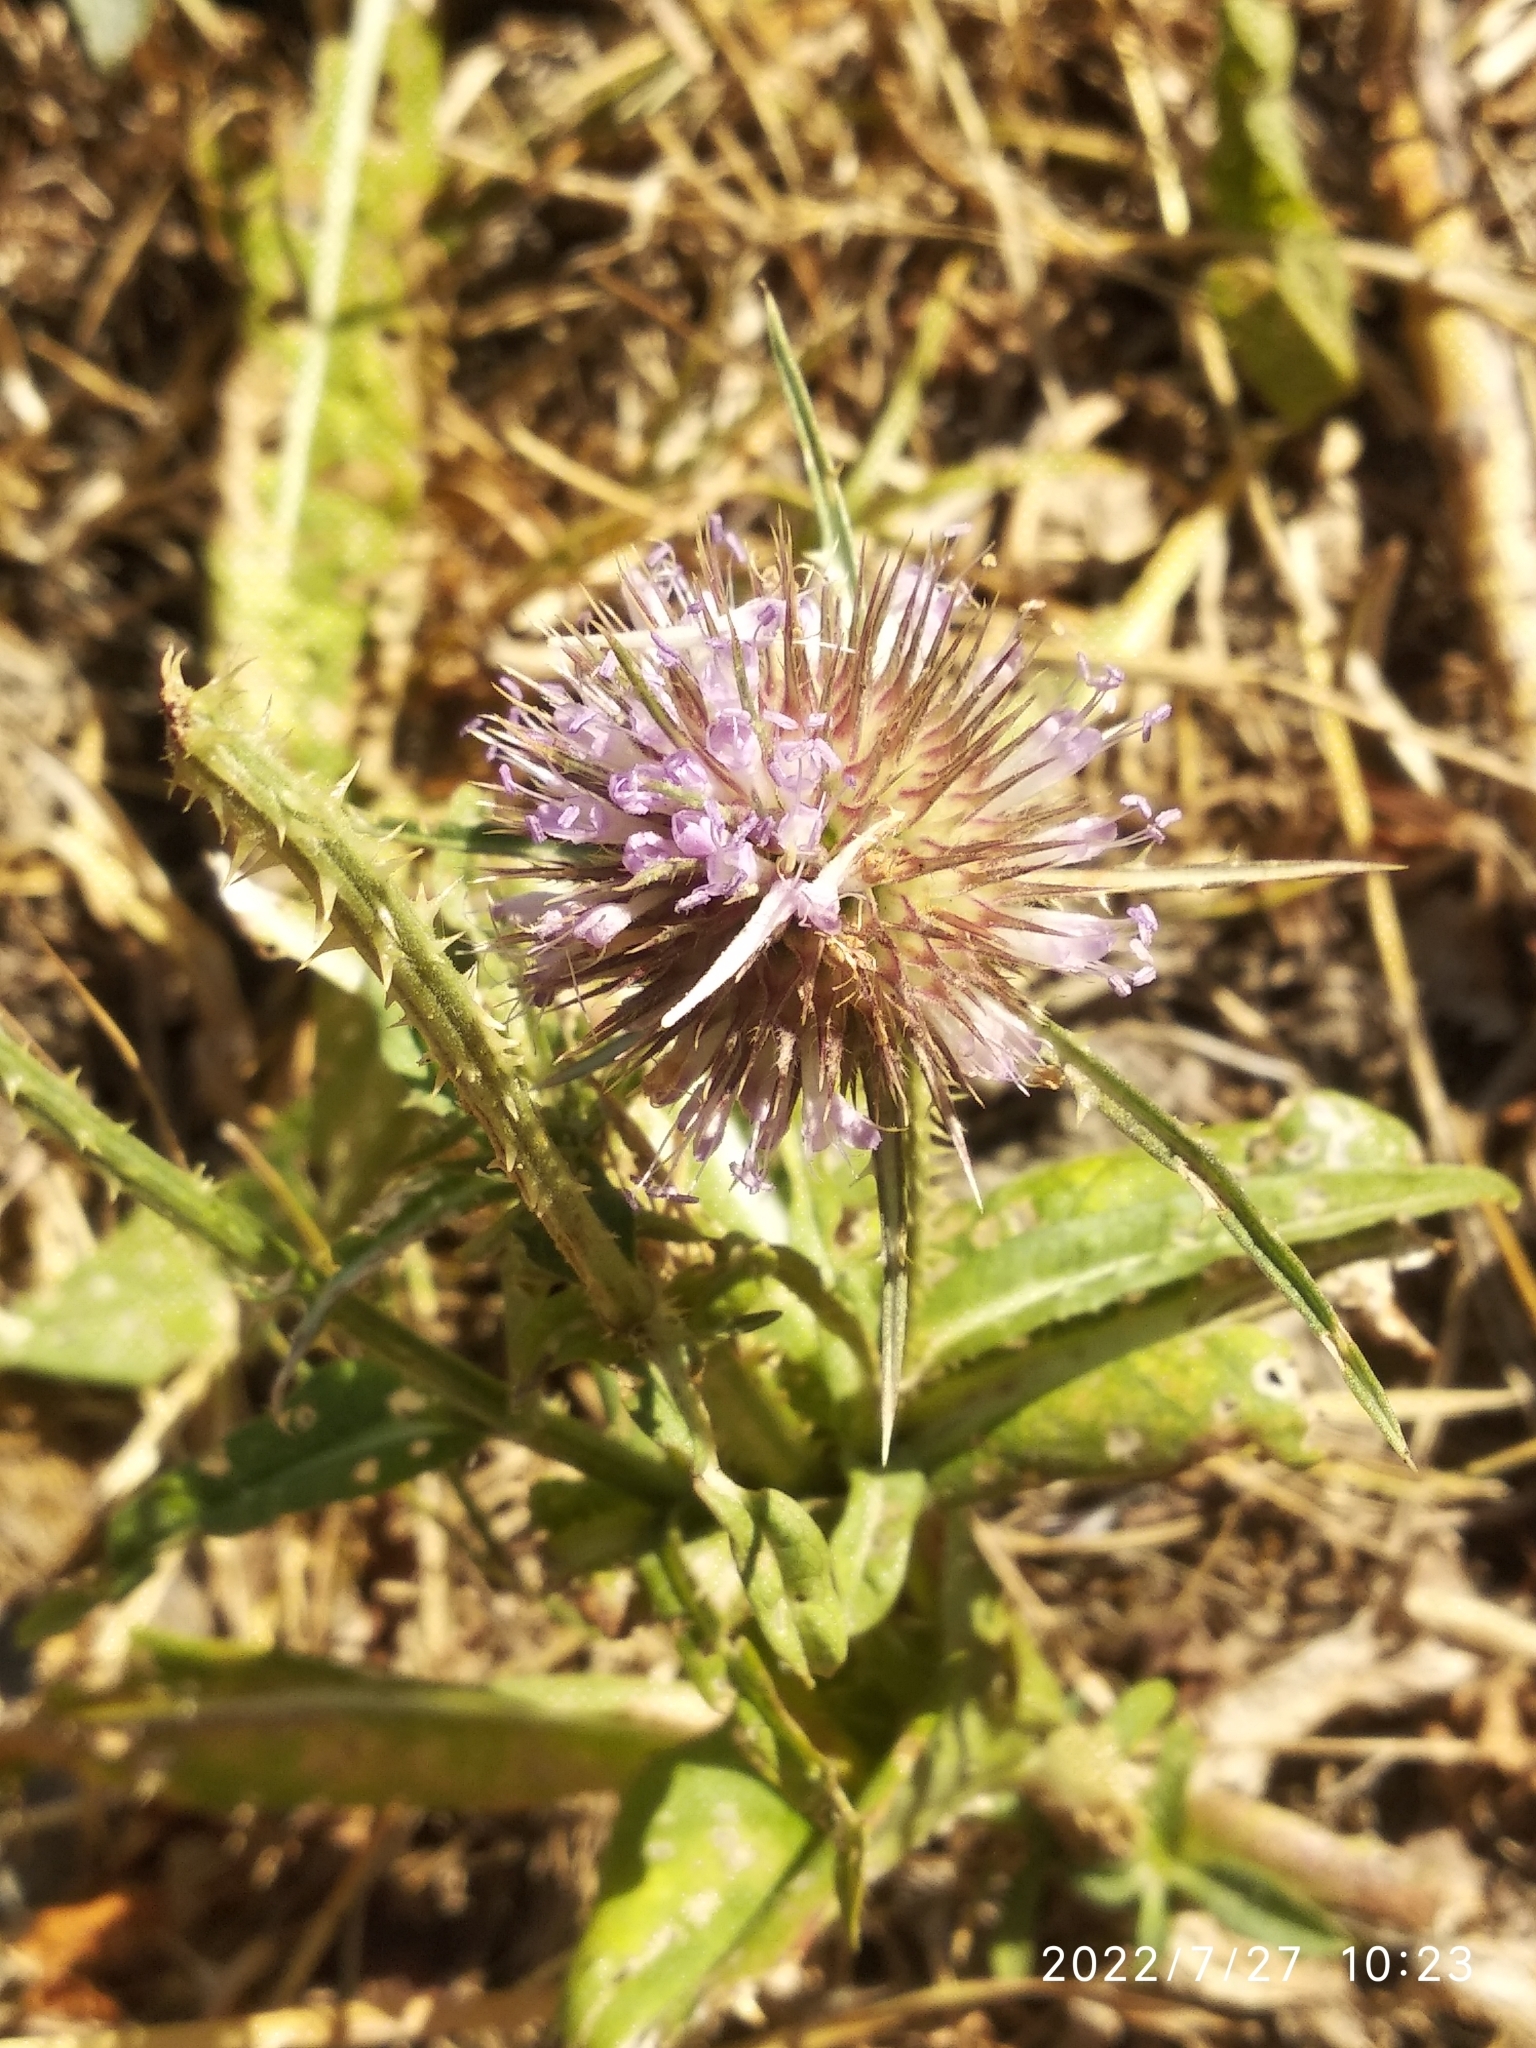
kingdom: Plantae
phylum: Tracheophyta
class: Magnoliopsida
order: Dipsacales
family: Caprifoliaceae
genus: Dipsacus
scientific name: Dipsacus fullonum
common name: Teasel
